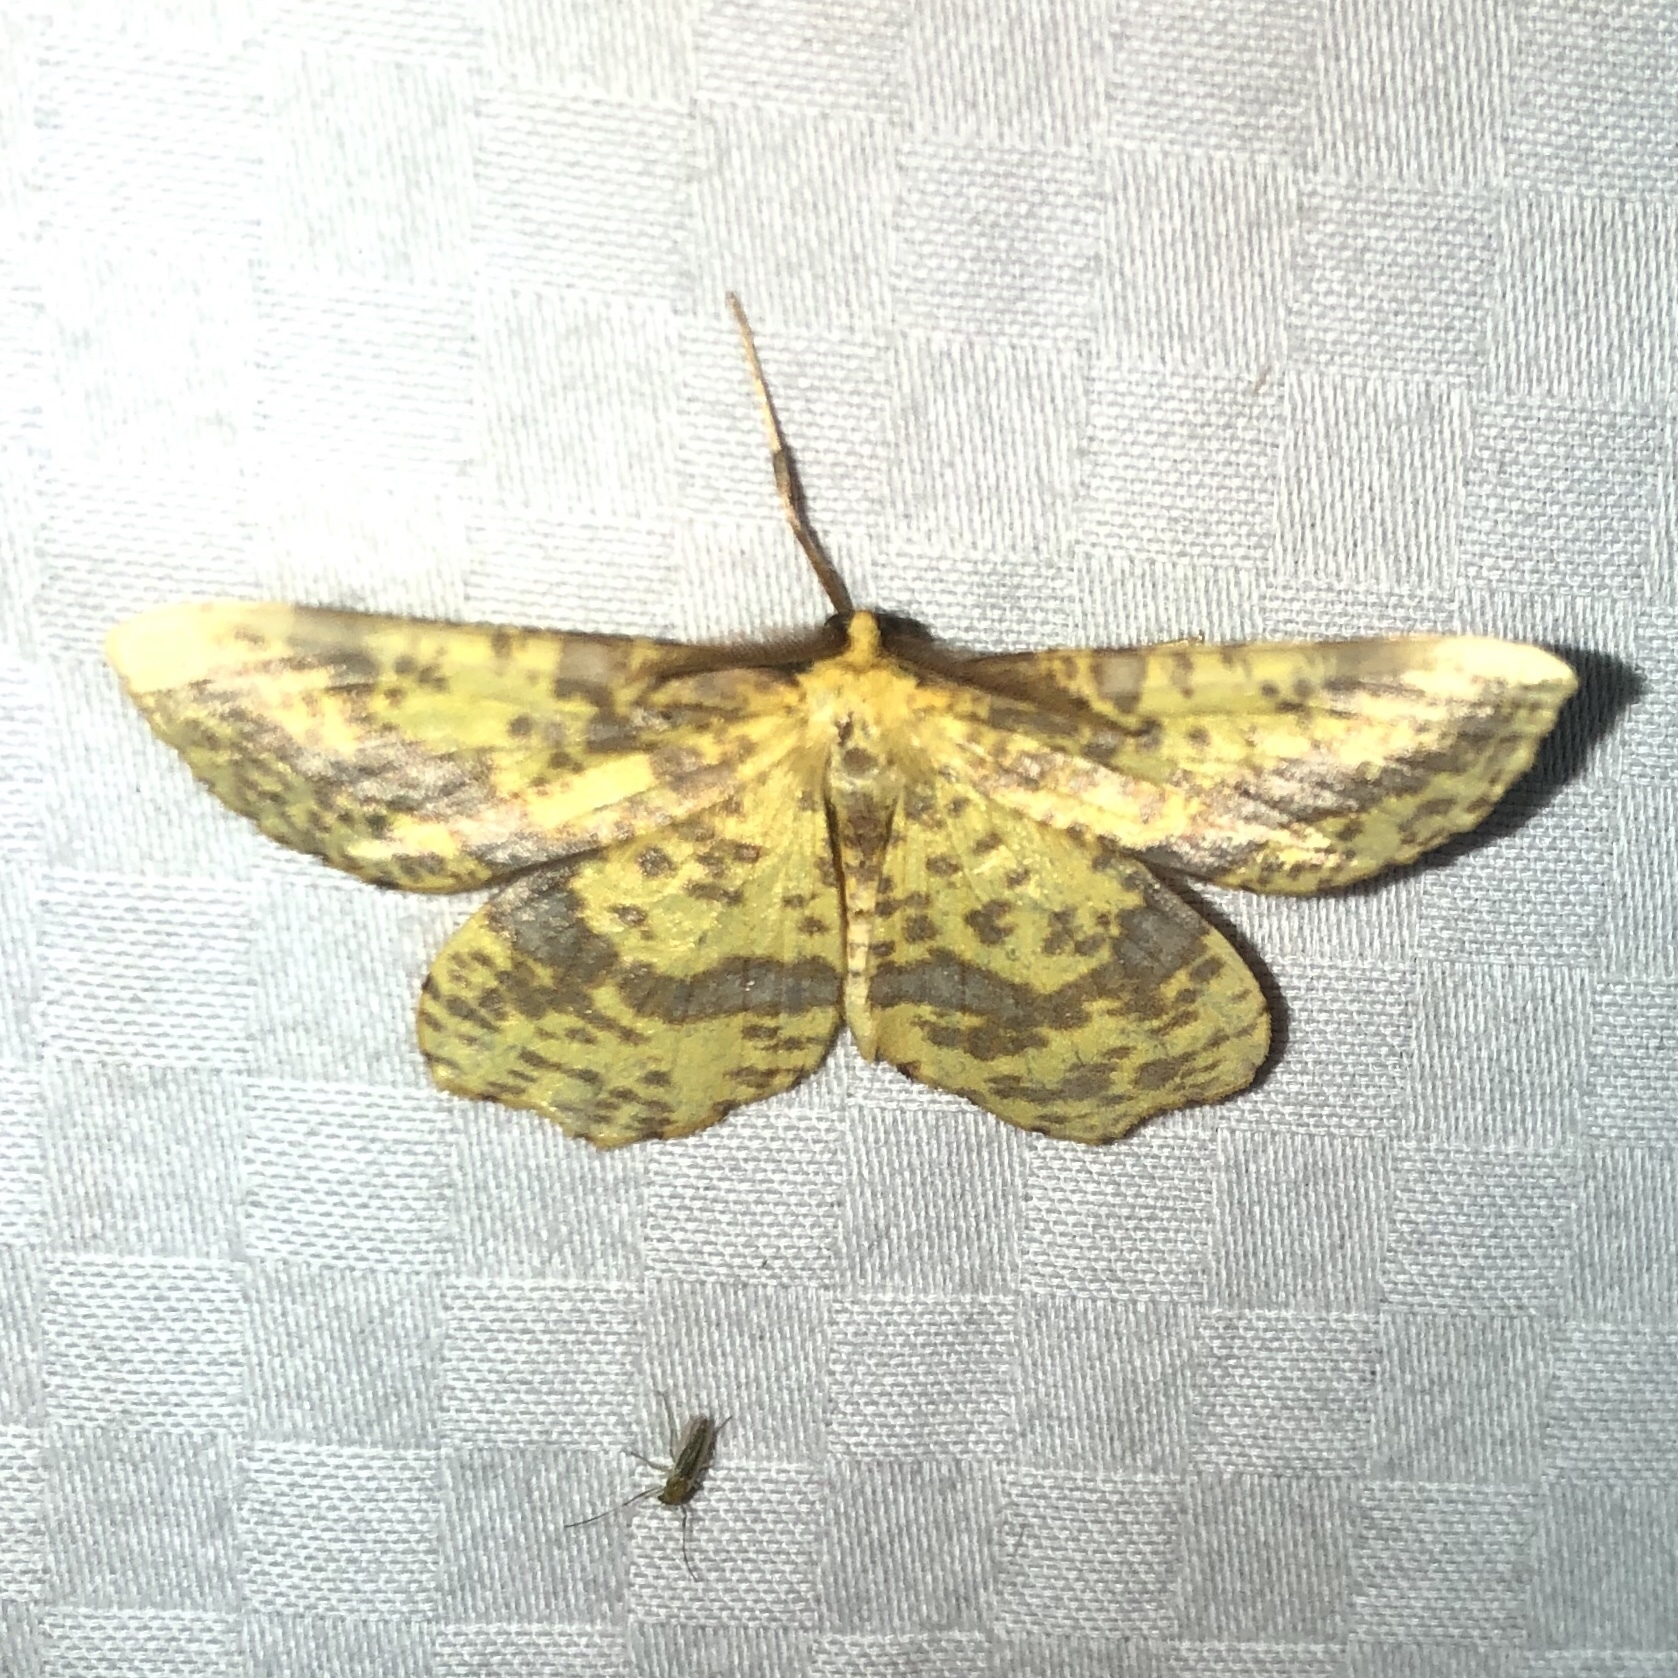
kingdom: Animalia
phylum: Arthropoda
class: Insecta
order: Lepidoptera
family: Geometridae
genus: Xanthotype
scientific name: Xanthotype
